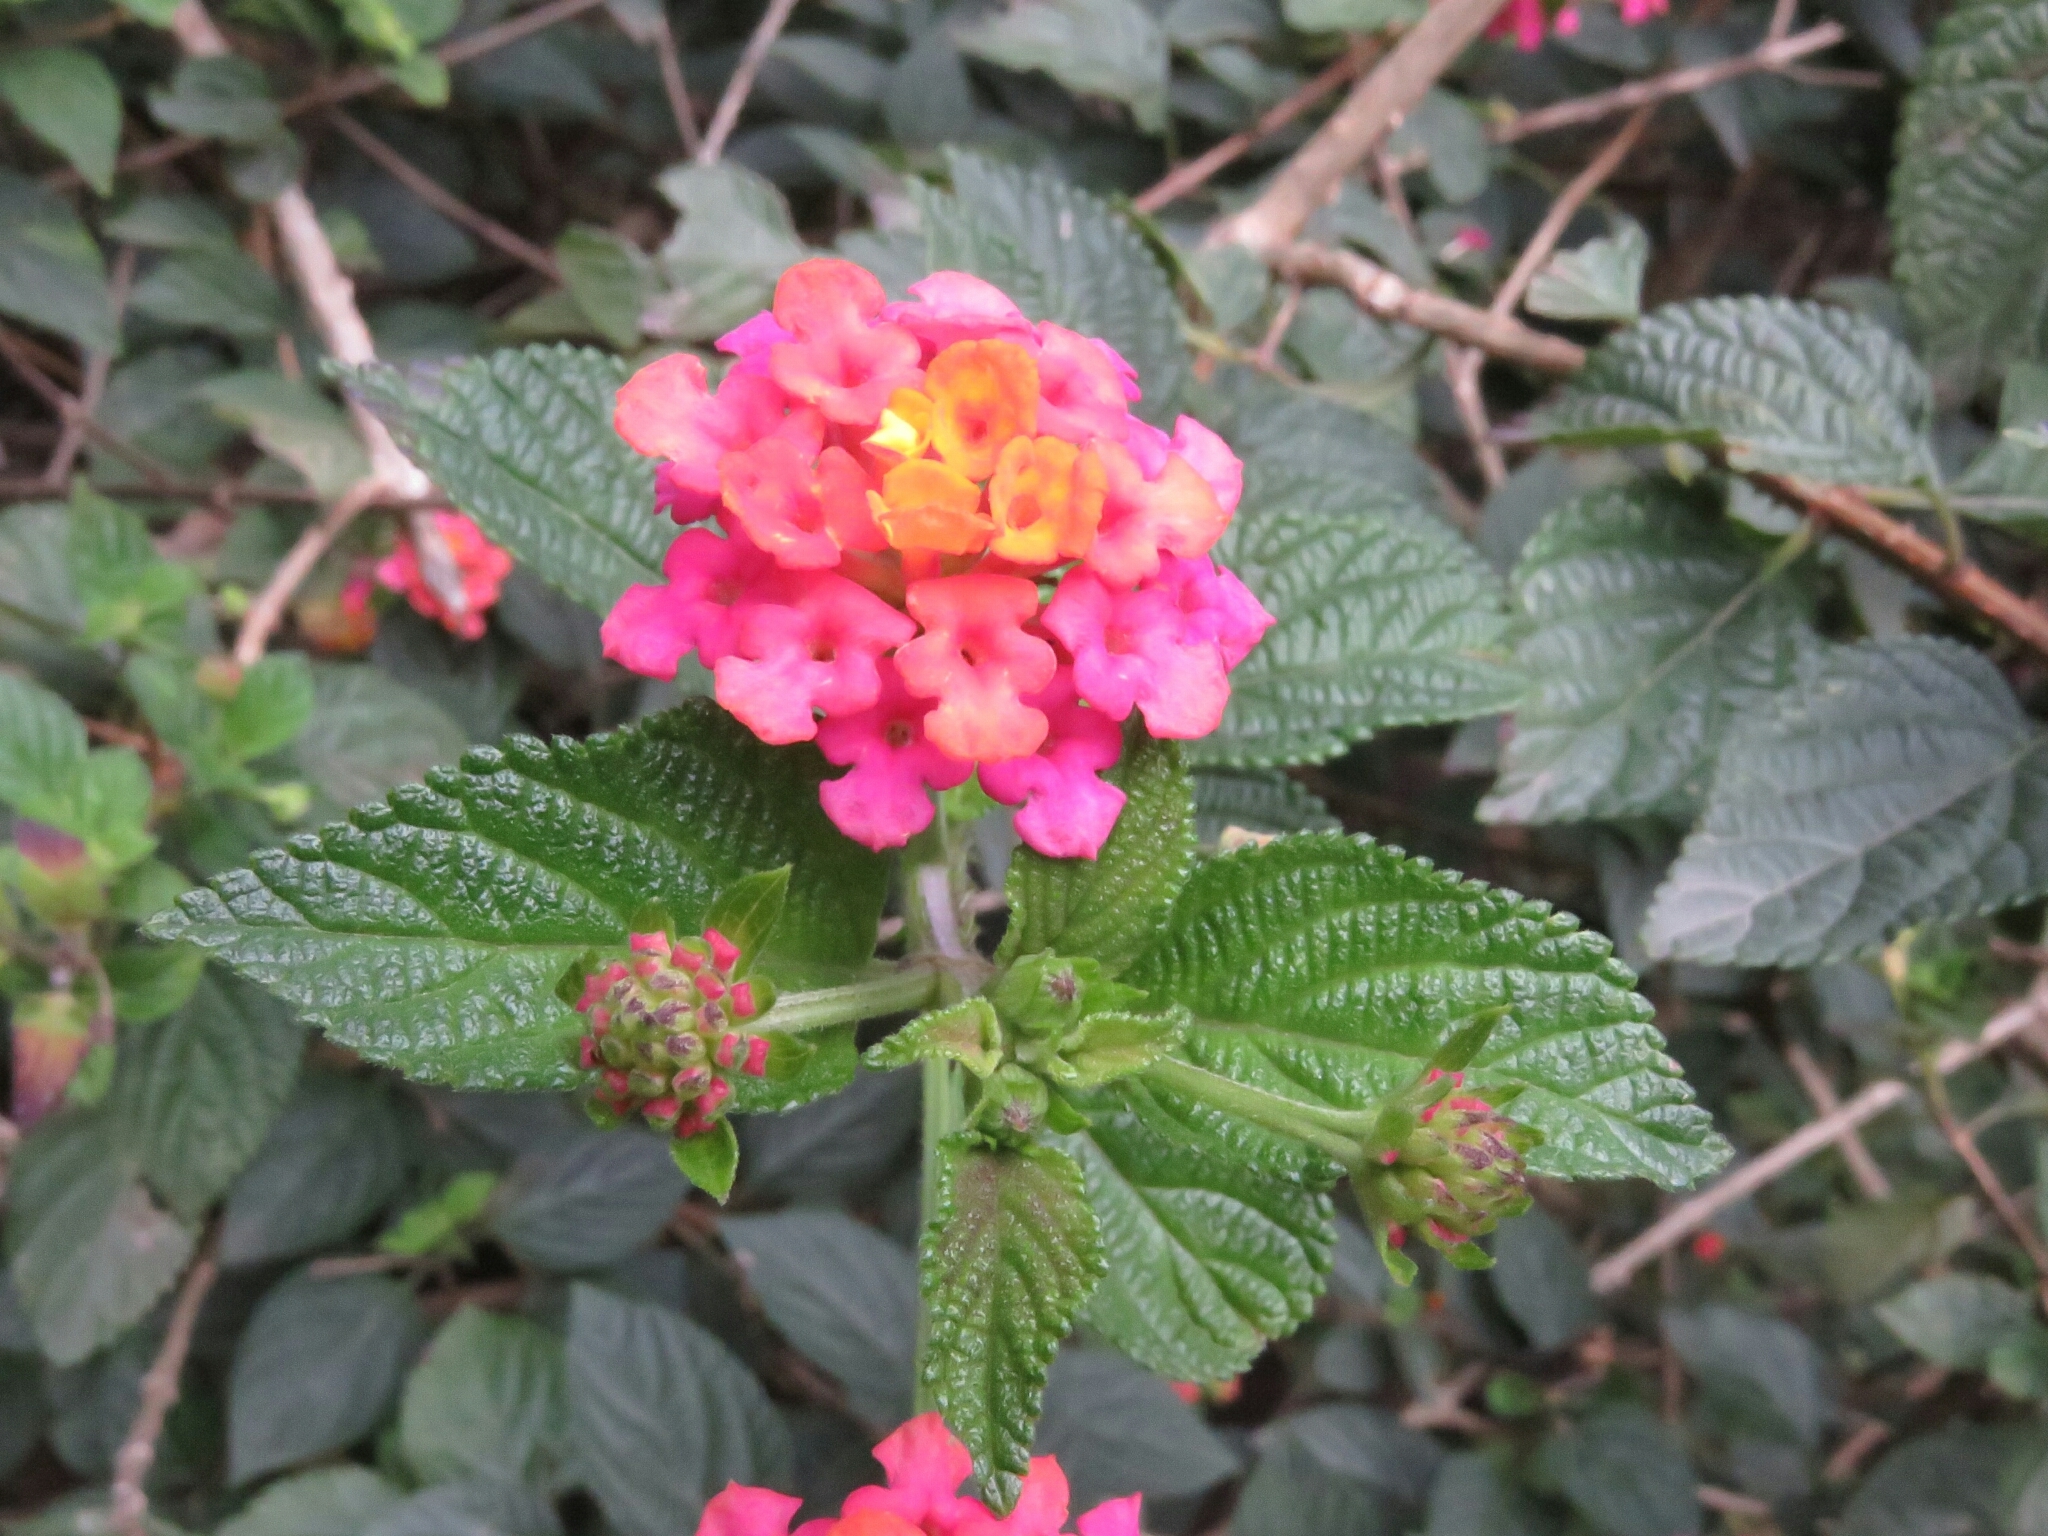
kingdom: Plantae
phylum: Tracheophyta
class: Magnoliopsida
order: Lamiales
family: Verbenaceae
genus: Lantana
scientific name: Lantana camara
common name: Lantana
